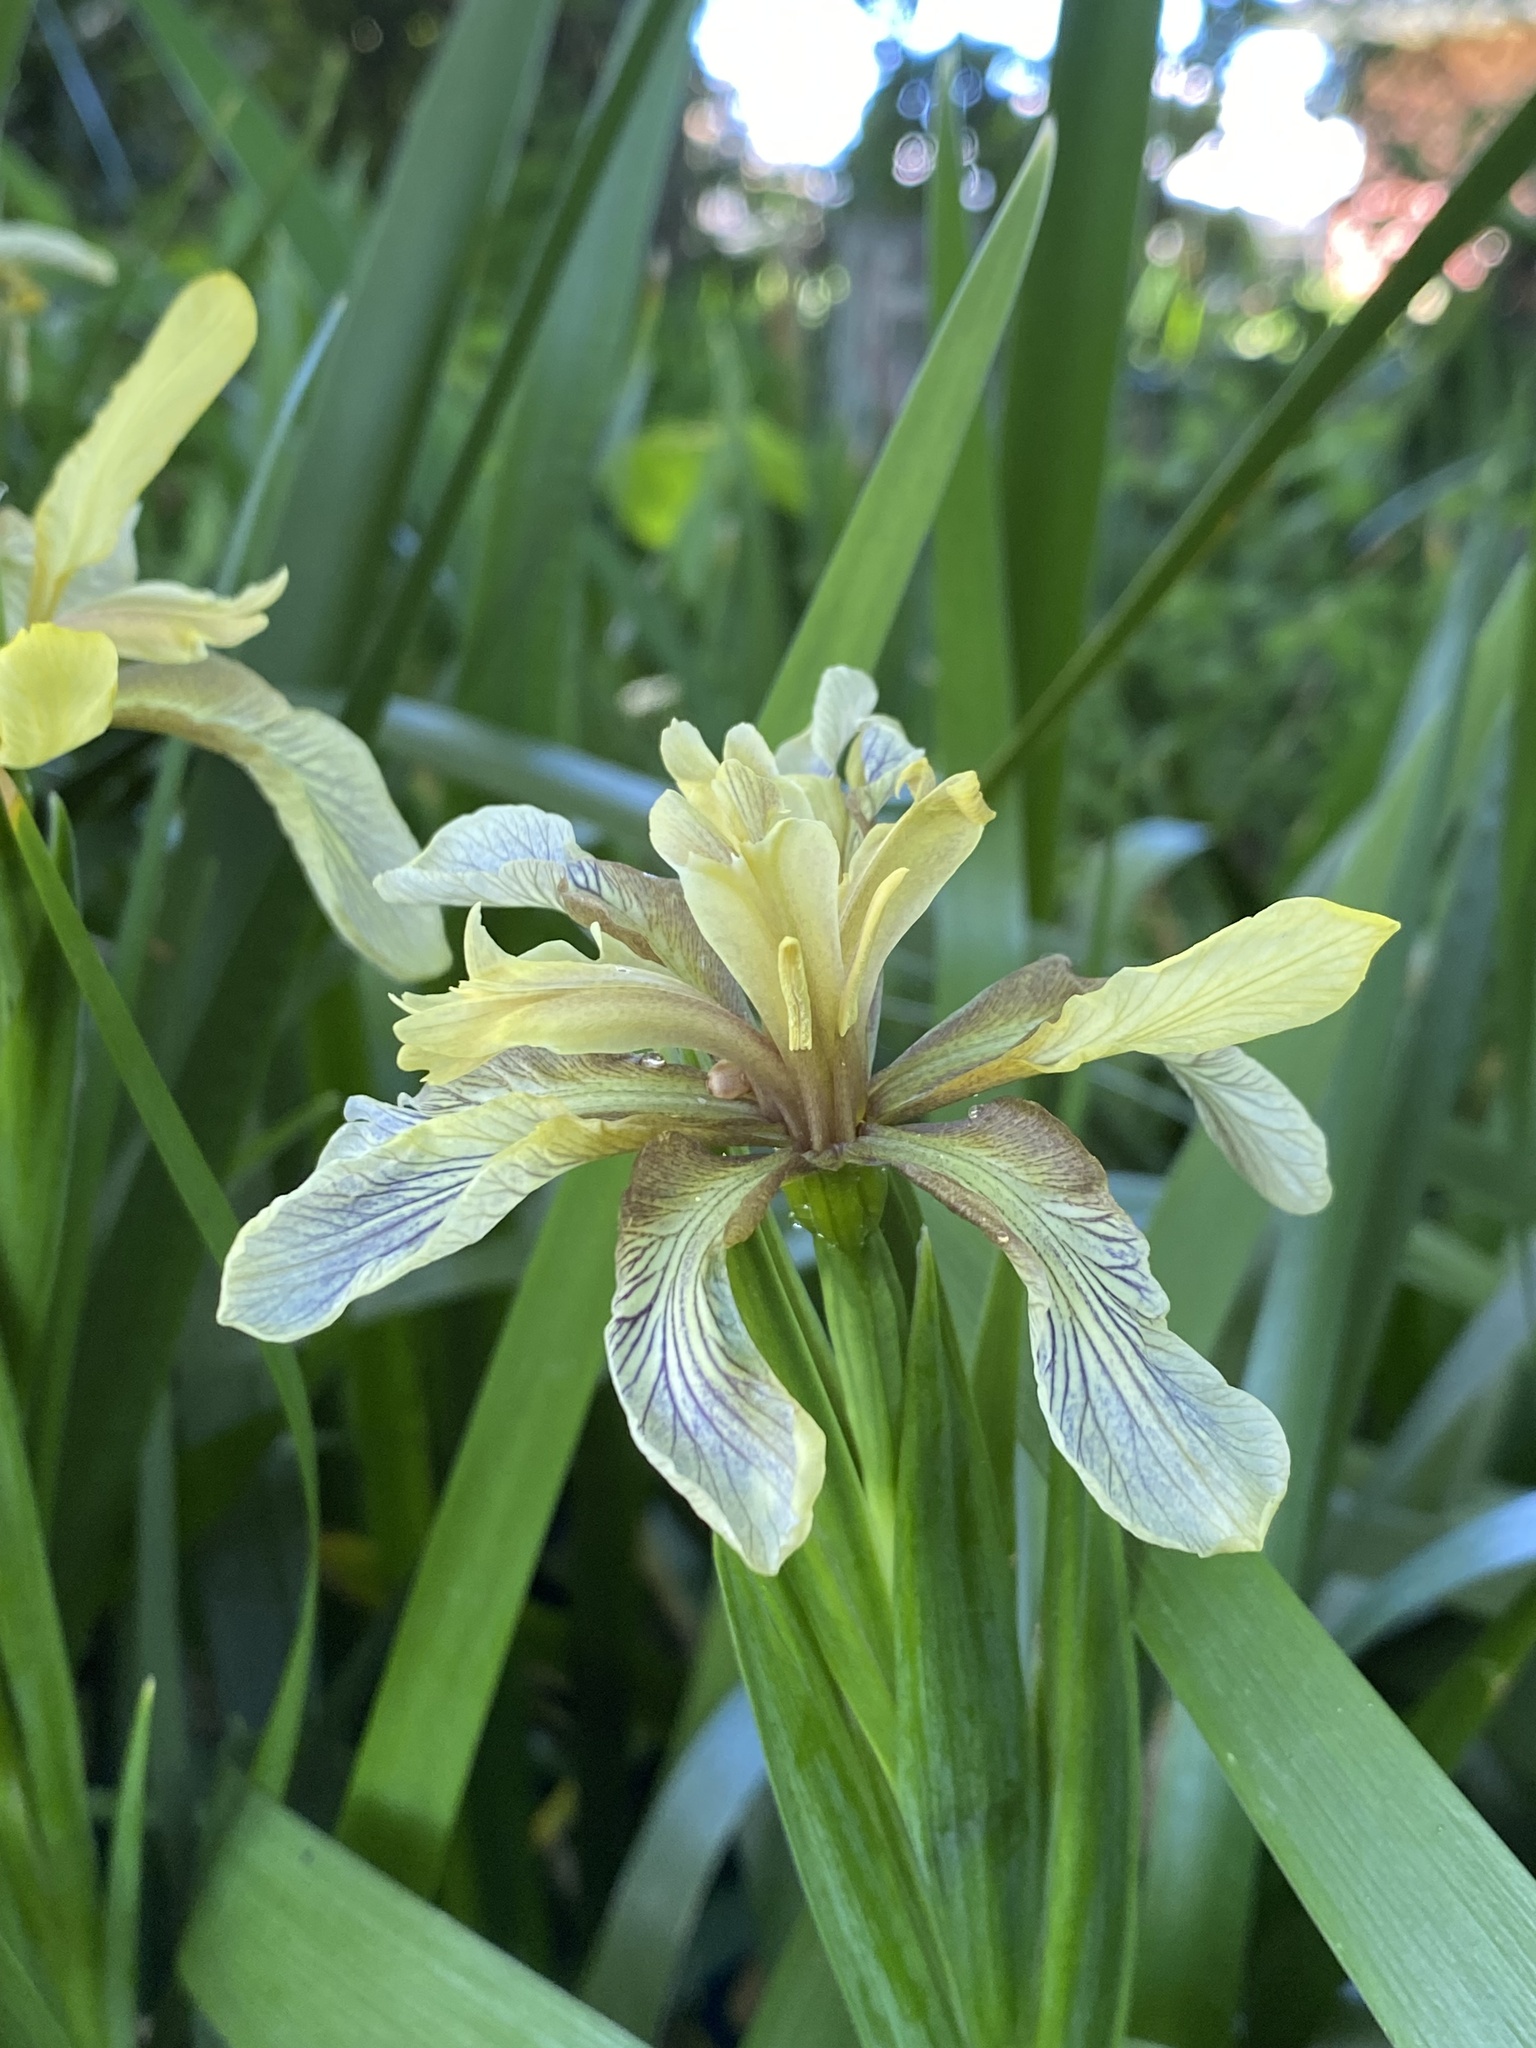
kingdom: Plantae
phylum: Tracheophyta
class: Liliopsida
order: Asparagales
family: Iridaceae
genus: Iris
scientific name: Iris foetidissima
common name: Stinking iris
